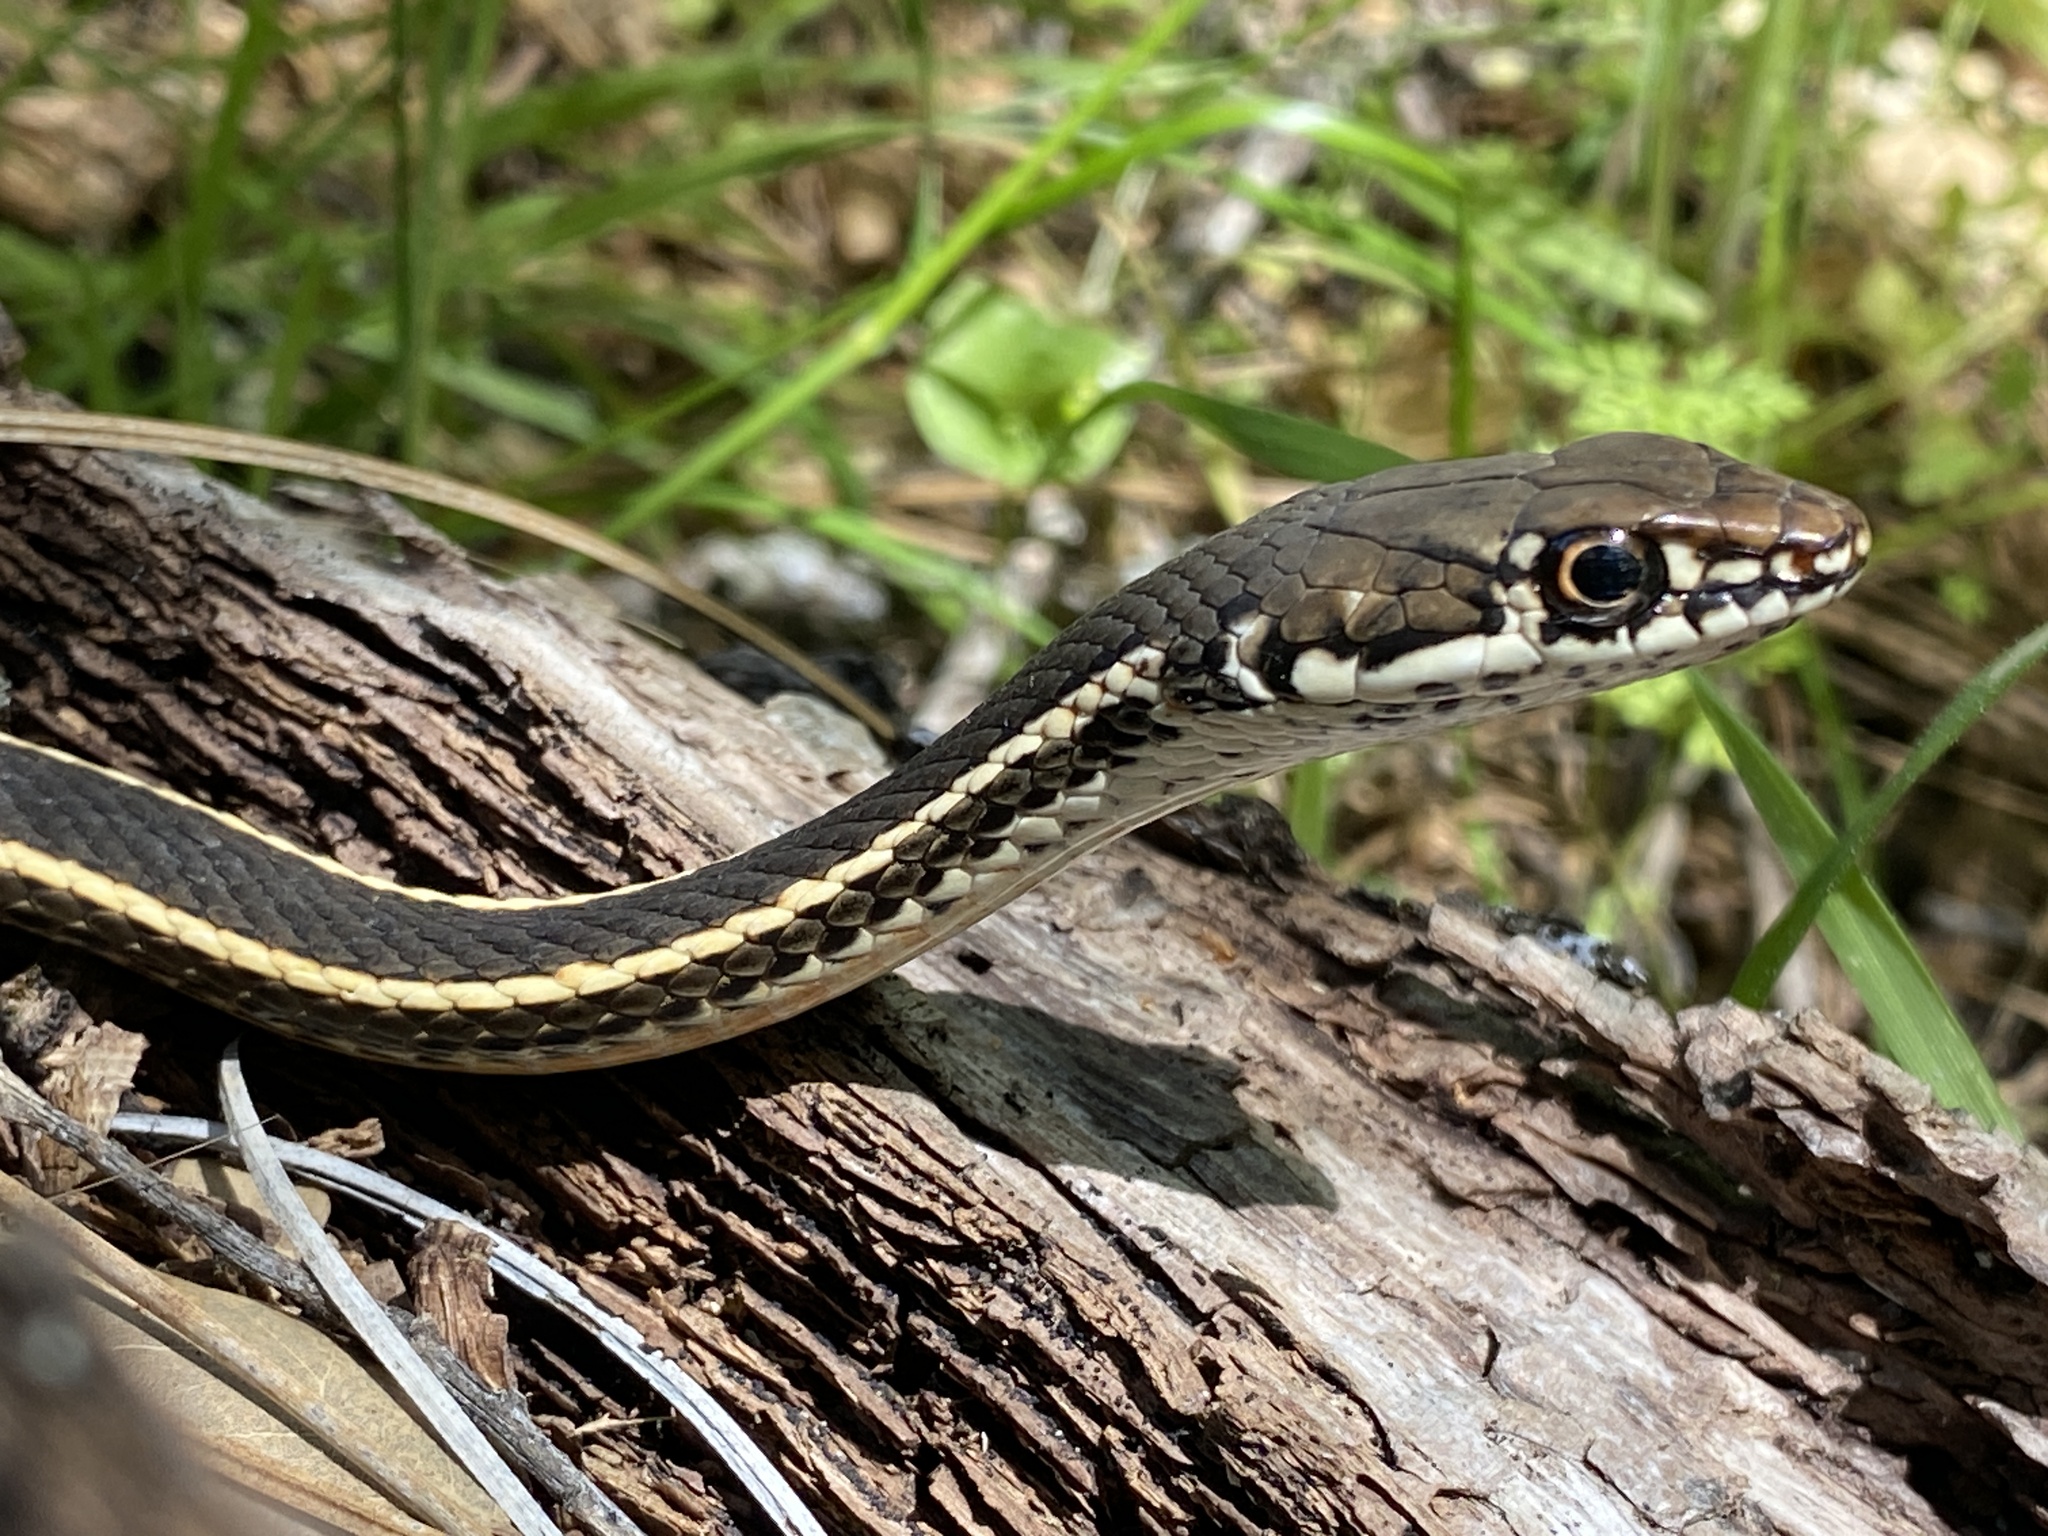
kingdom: Animalia
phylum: Chordata
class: Squamata
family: Colubridae
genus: Masticophis
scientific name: Masticophis lateralis
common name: Striped racer
